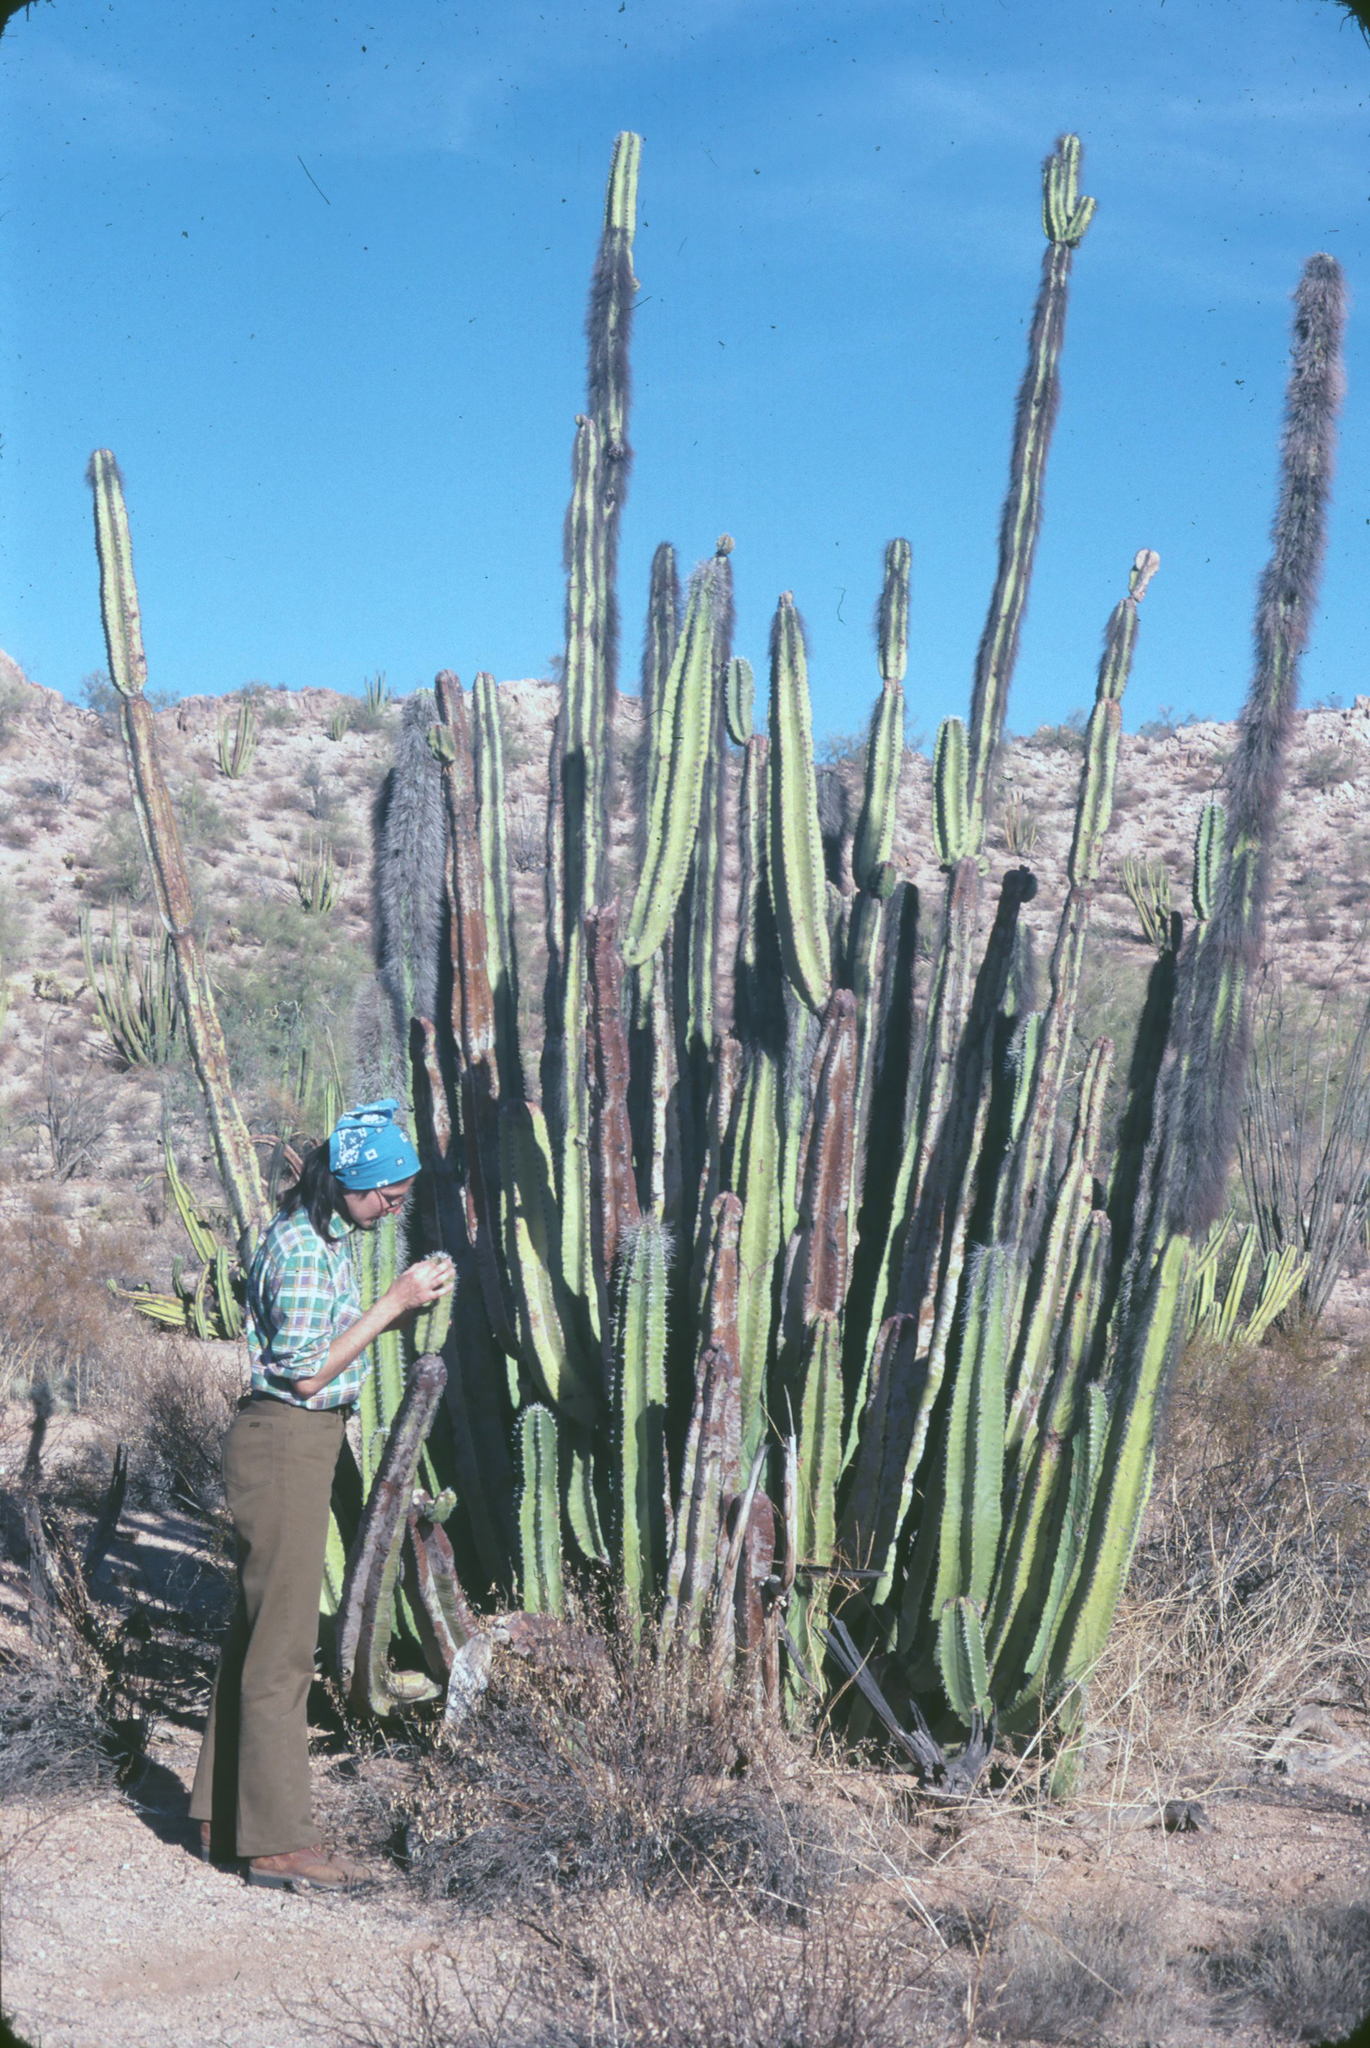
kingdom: Plantae
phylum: Tracheophyta
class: Magnoliopsida
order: Caryophyllales
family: Cactaceae
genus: Pachycereus
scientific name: Pachycereus schottii
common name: Senita cactus
